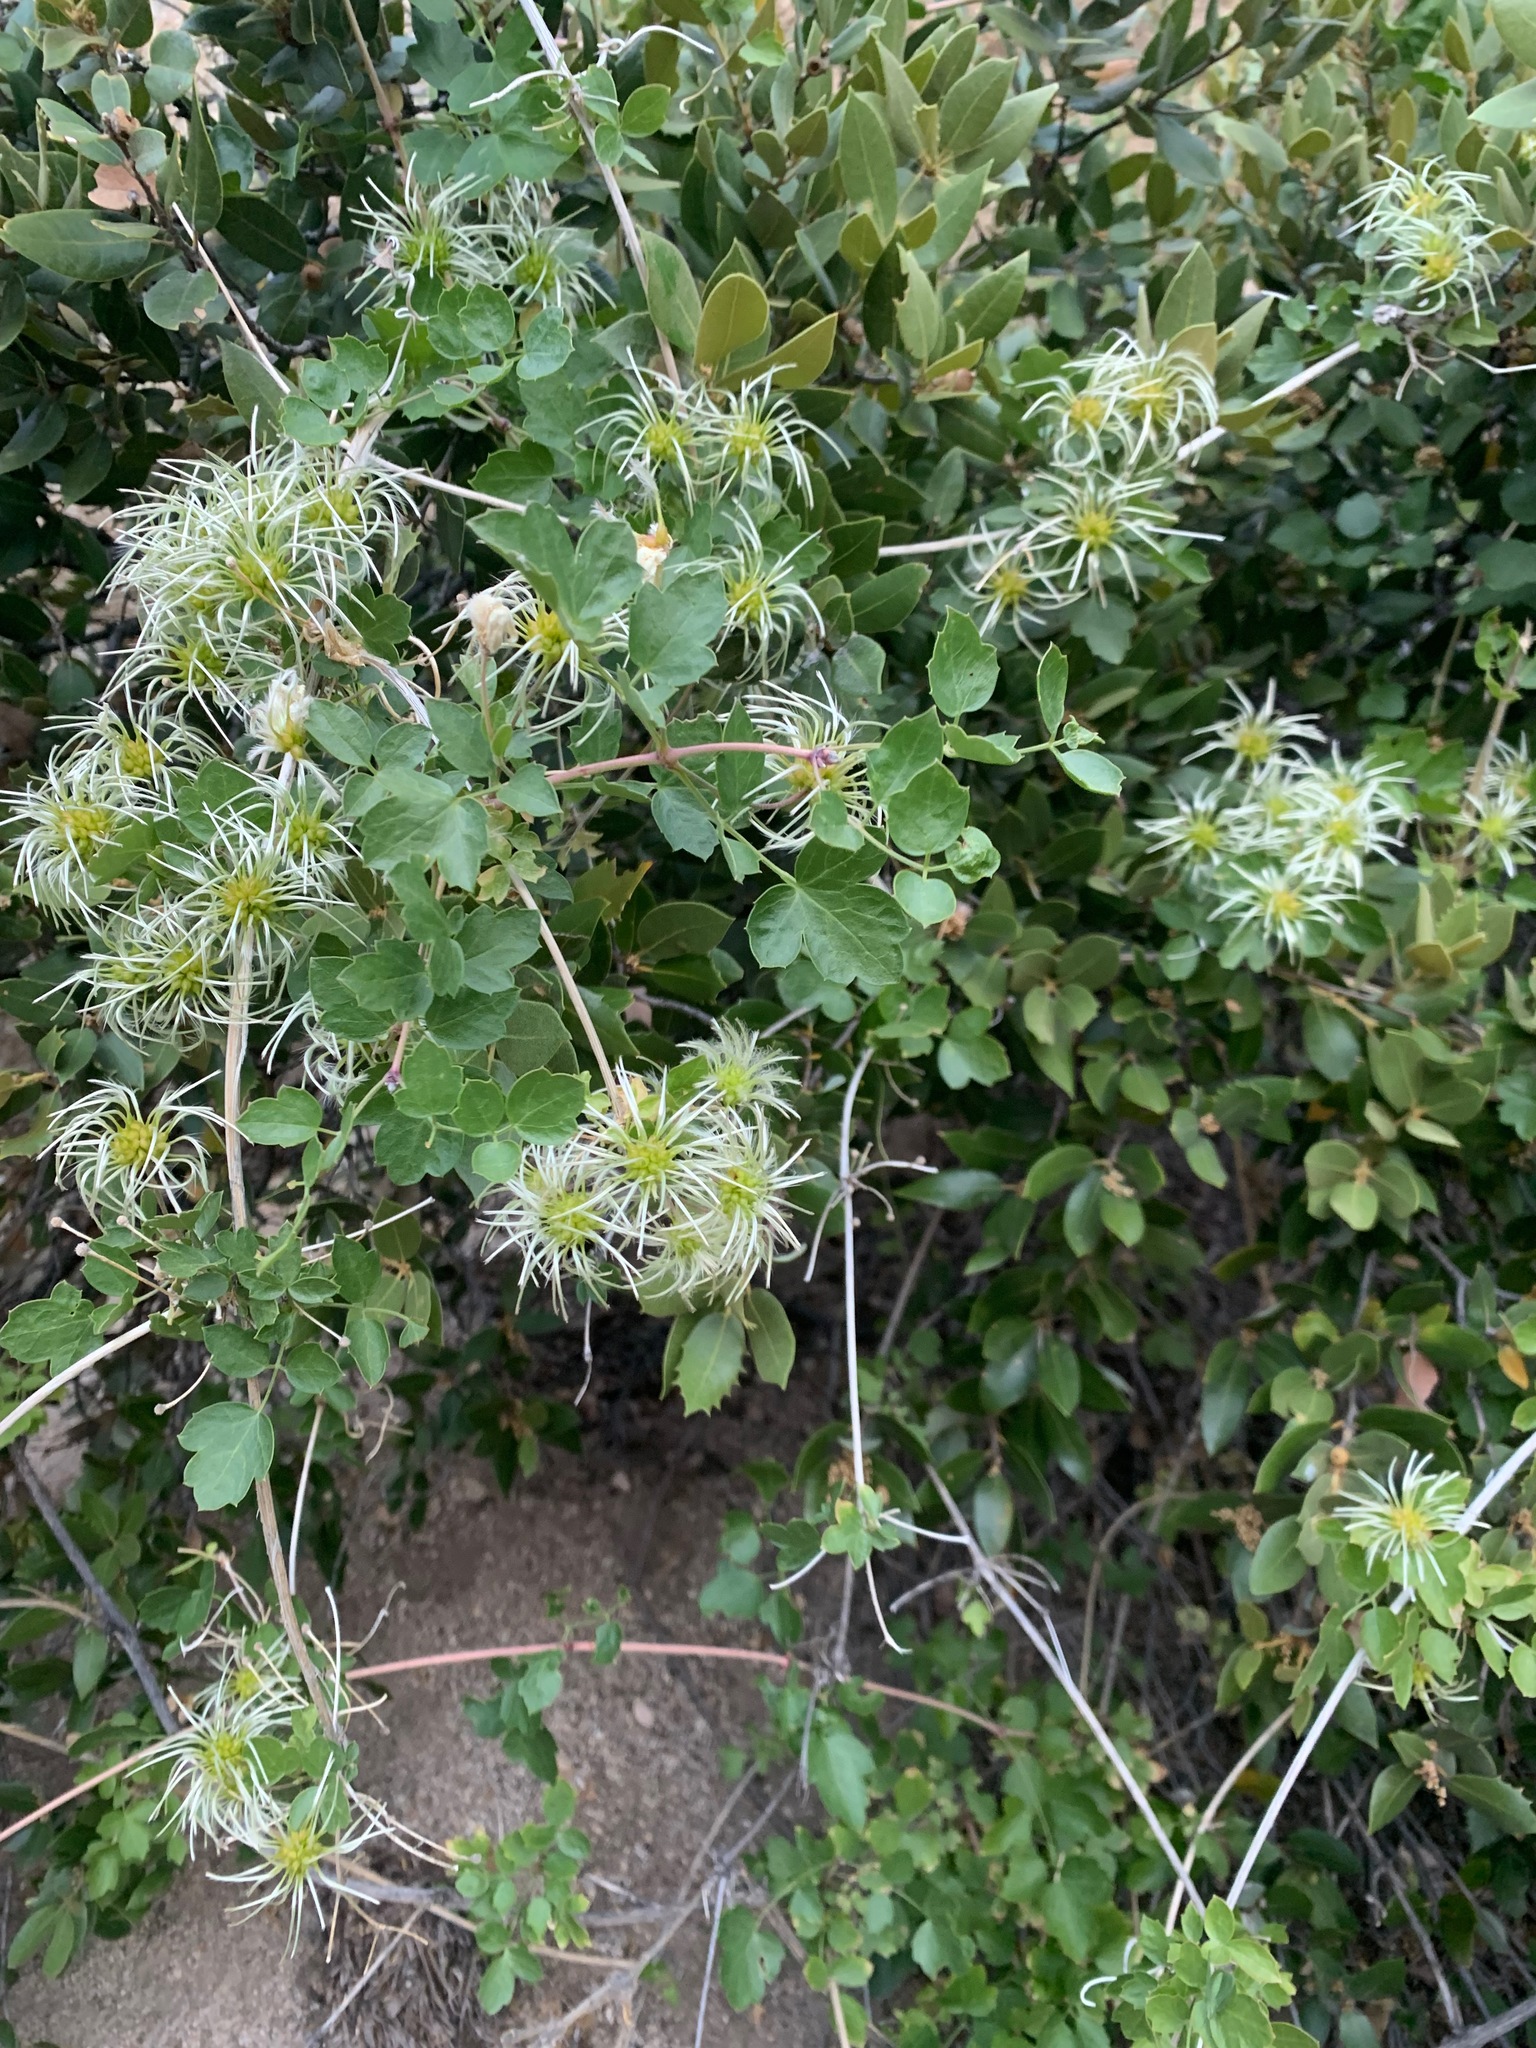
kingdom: Plantae
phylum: Tracheophyta
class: Magnoliopsida
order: Ranunculales
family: Ranunculaceae
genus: Clematis
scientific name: Clematis pauciflora
